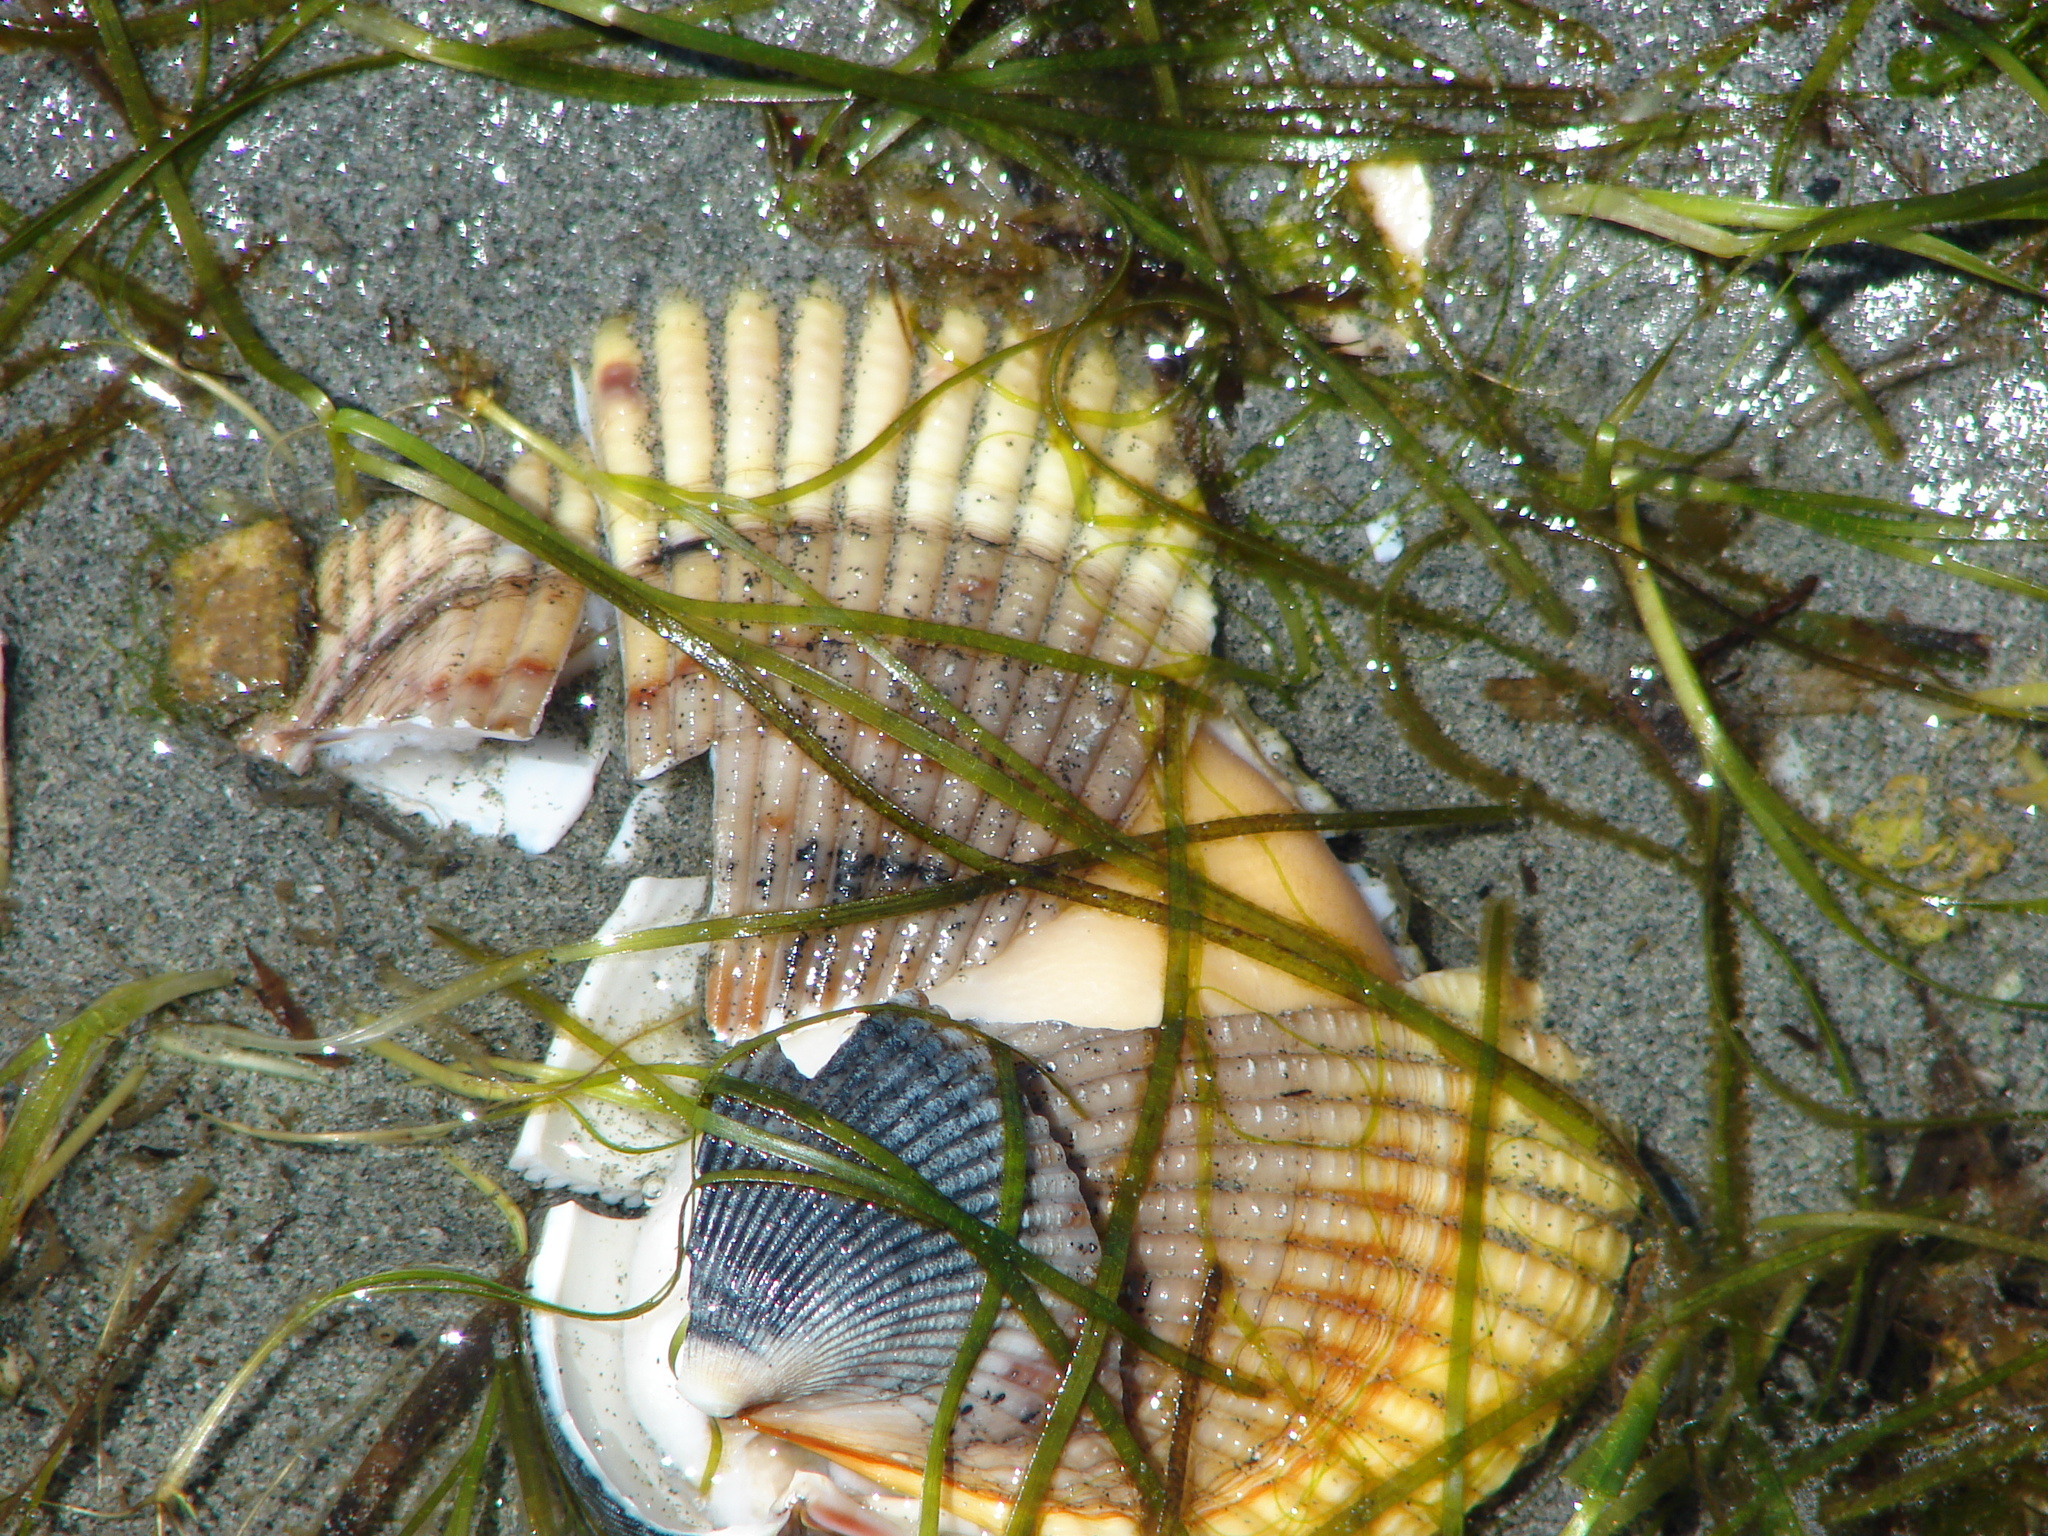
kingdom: Animalia
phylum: Mollusca
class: Bivalvia
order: Cardiida
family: Cardiidae
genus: Clinocardium
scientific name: Clinocardium nuttallii
